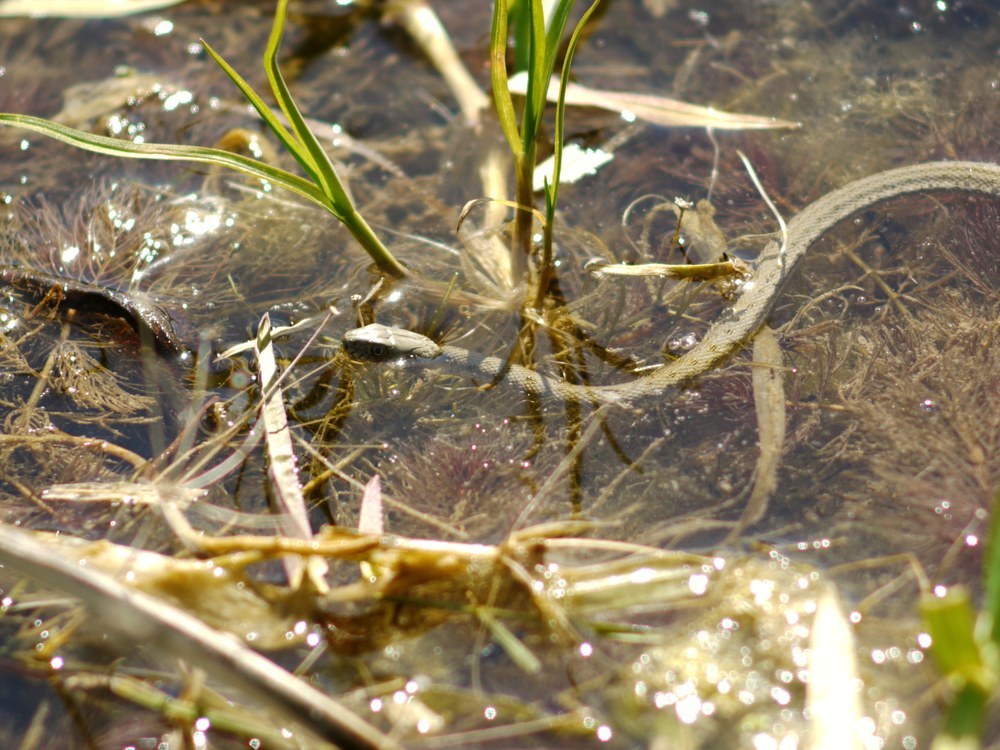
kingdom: Animalia
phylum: Chordata
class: Squamata
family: Colubridae
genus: Natrix
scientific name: Natrix tessellata
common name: Dice snake
